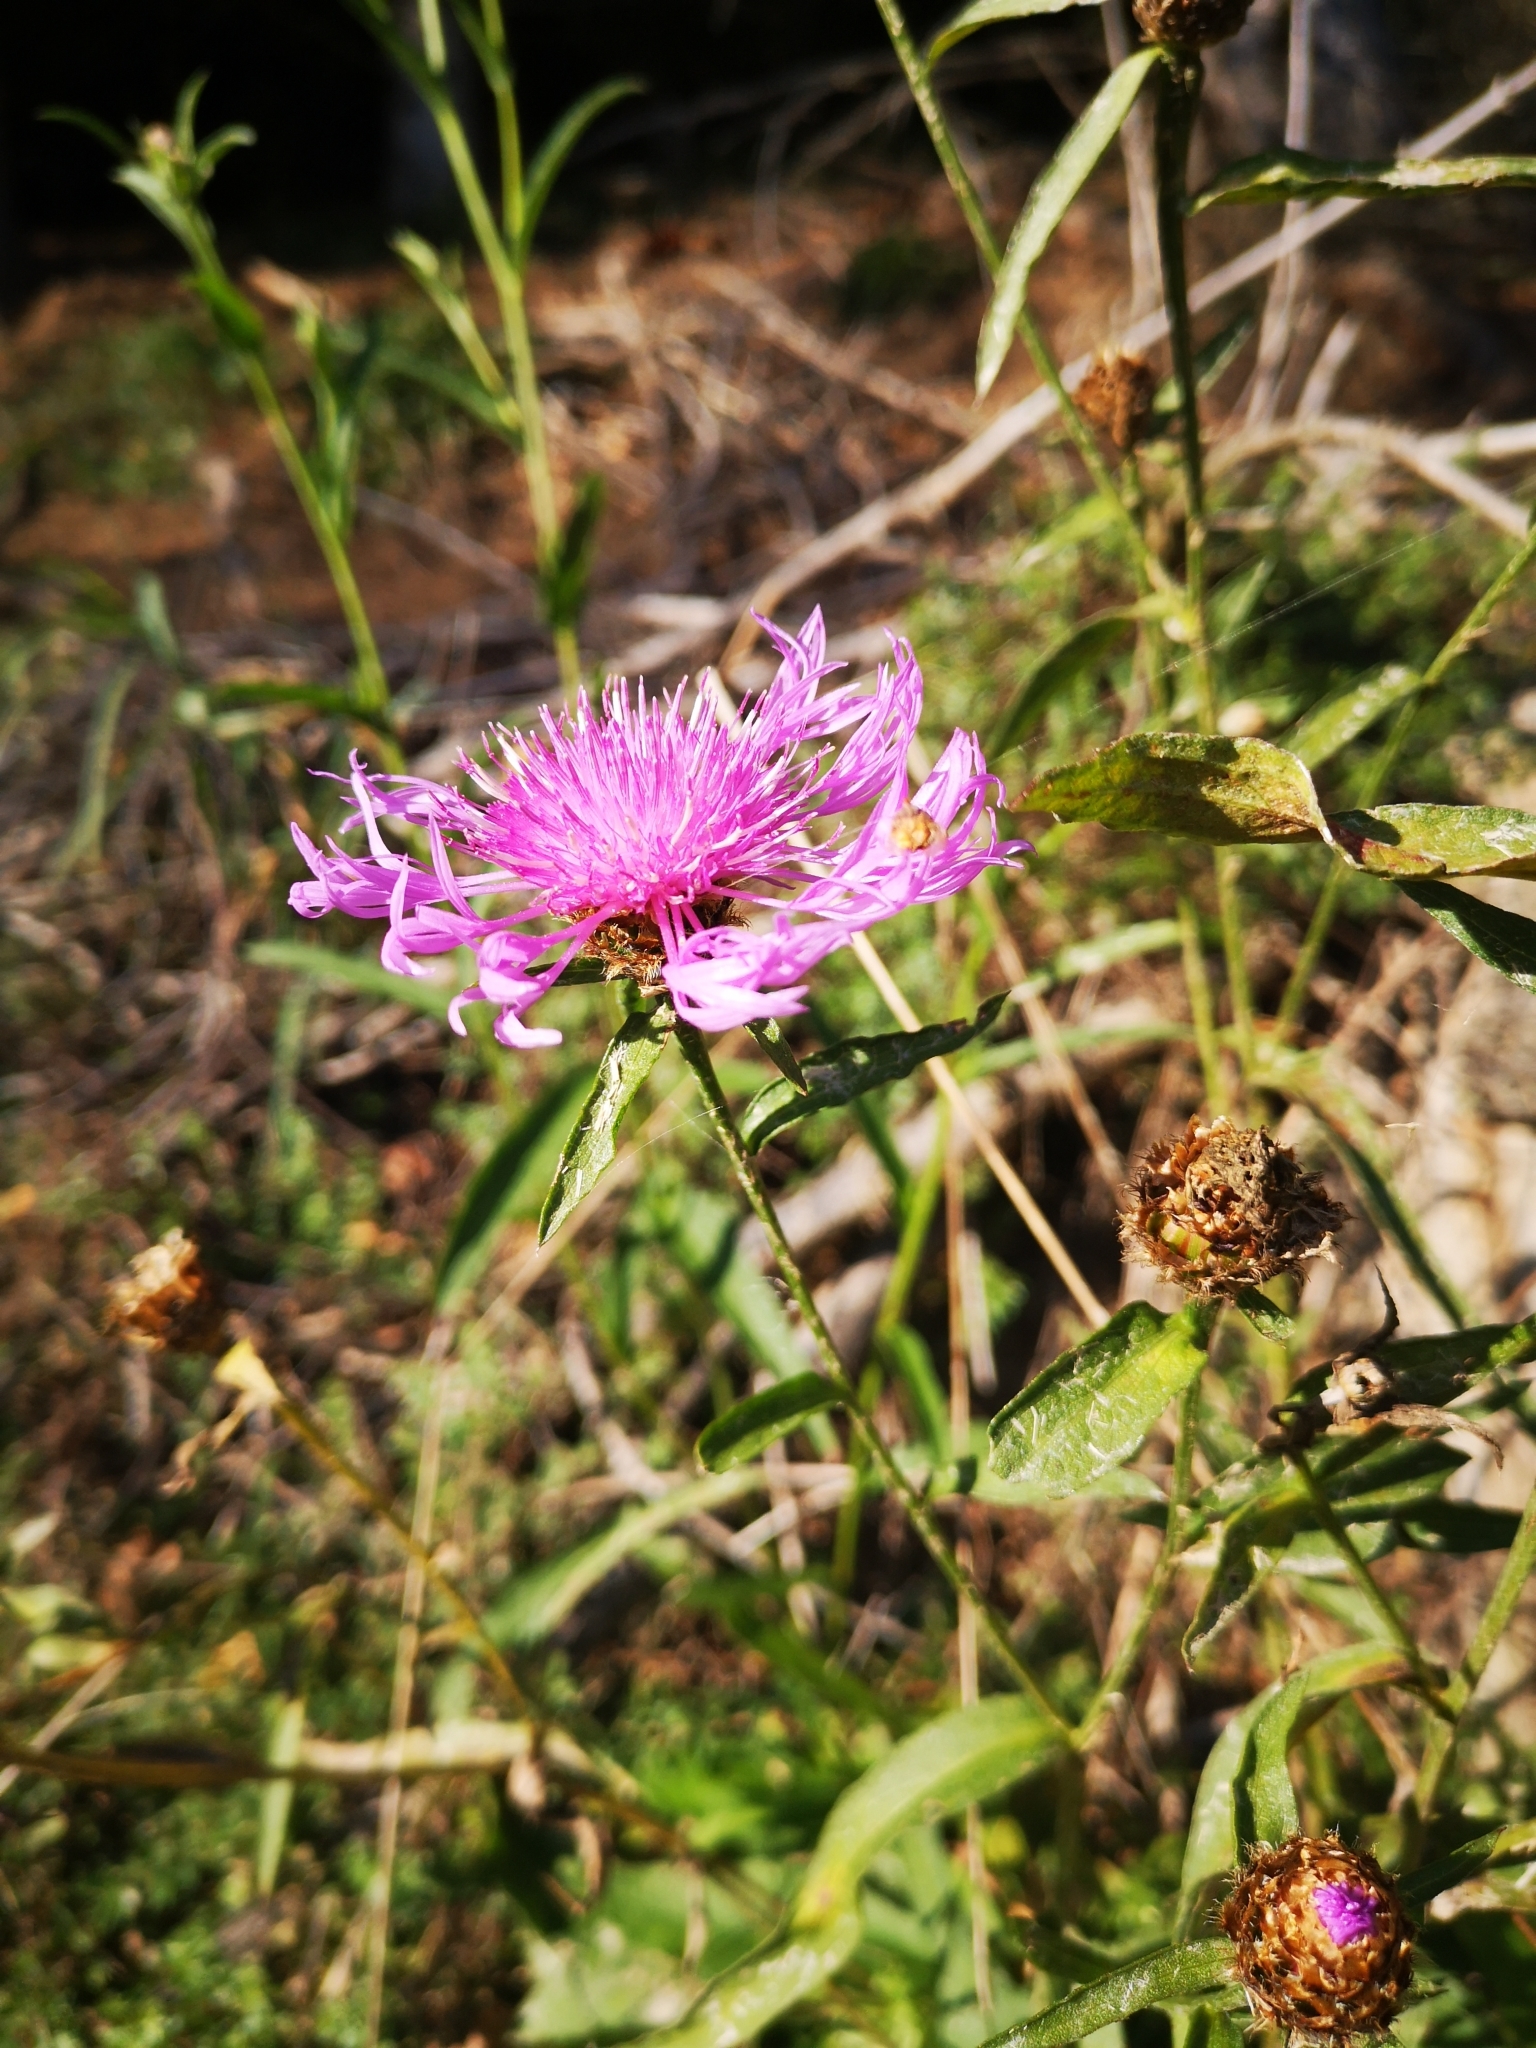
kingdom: Plantae
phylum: Tracheophyta
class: Magnoliopsida
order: Asterales
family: Asteraceae
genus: Centaurea
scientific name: Centaurea jacea
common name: Brown knapweed
